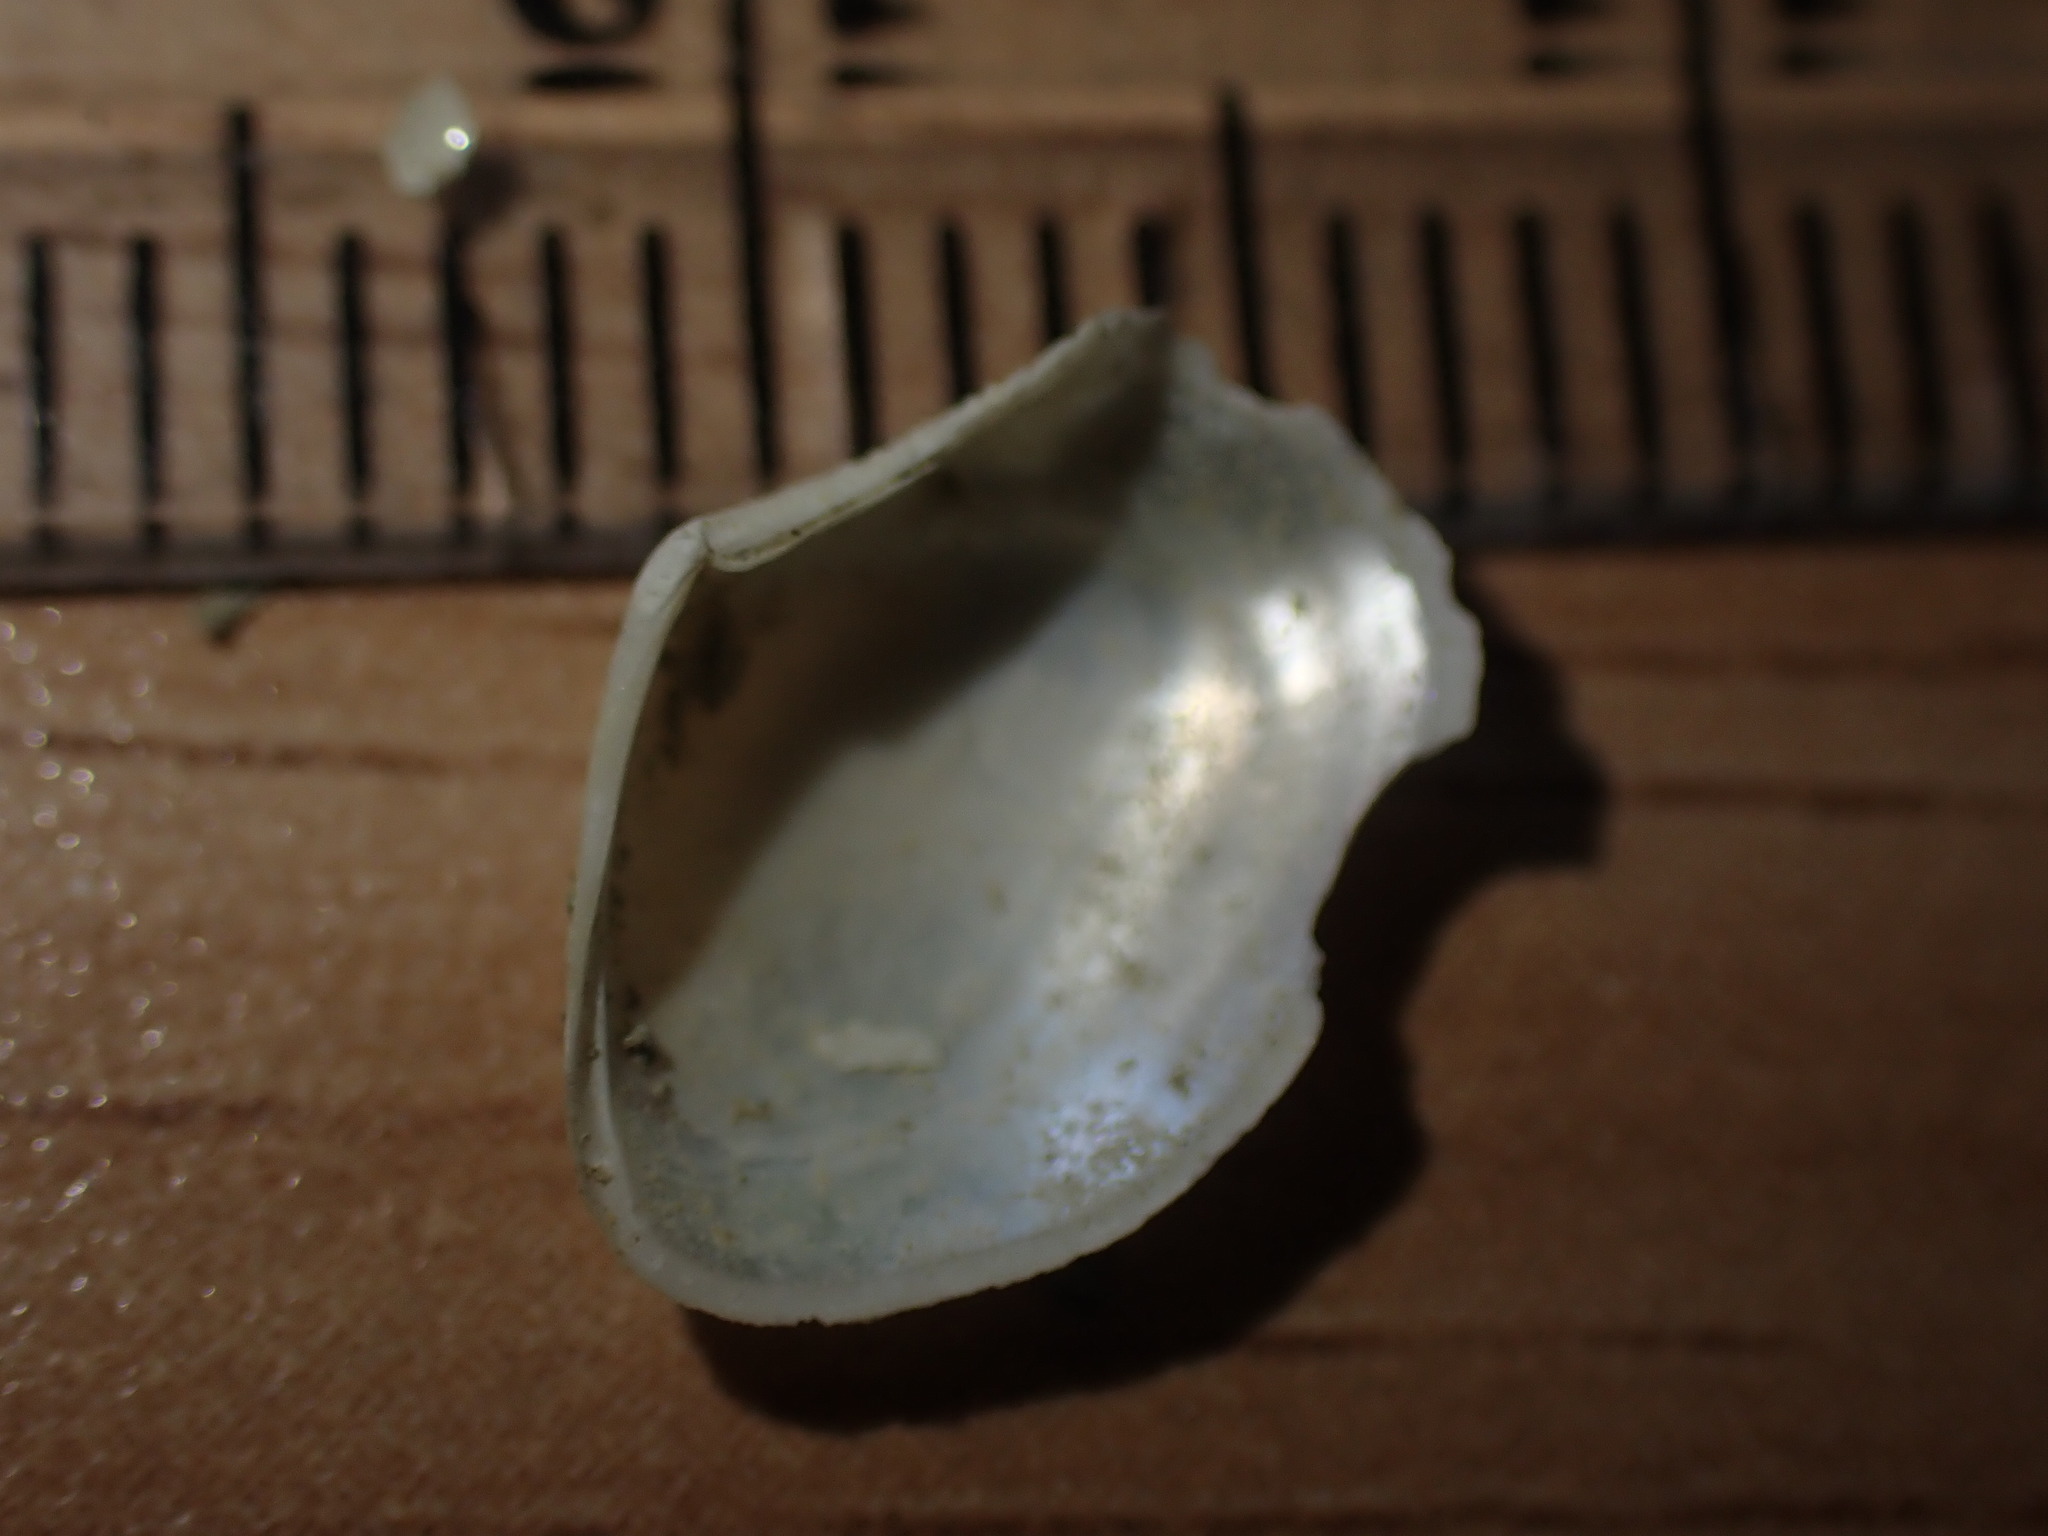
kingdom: Animalia
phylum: Mollusca
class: Bivalvia
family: Myochamidae
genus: Myadora
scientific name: Myadora antipodum
